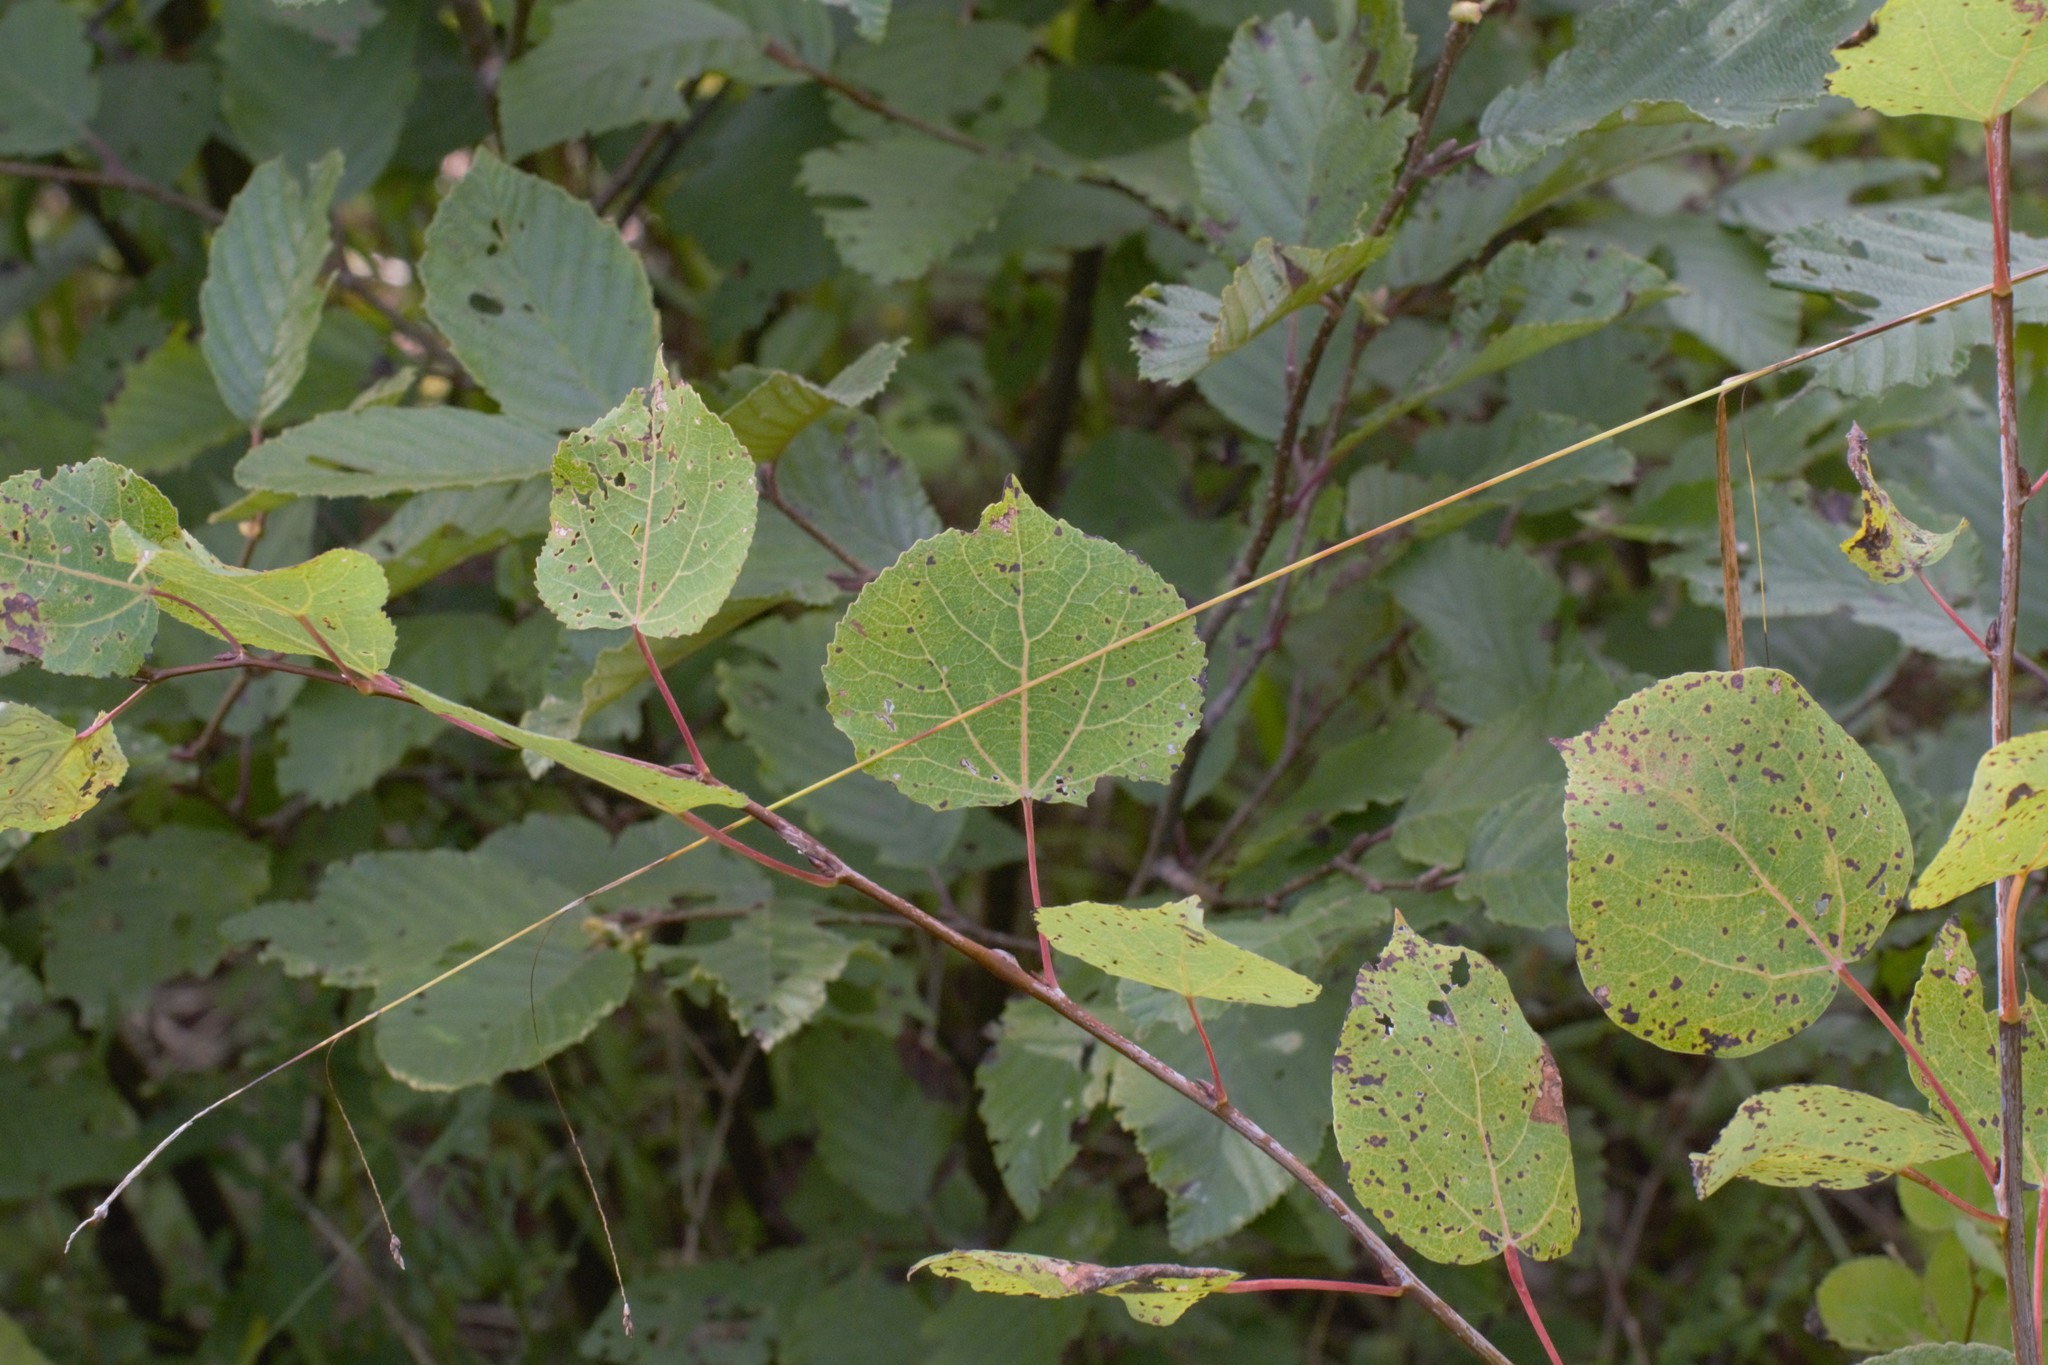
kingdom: Plantae
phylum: Tracheophyta
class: Magnoliopsida
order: Malpighiales
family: Salicaceae
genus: Populus
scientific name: Populus tremuloides
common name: Quaking aspen
